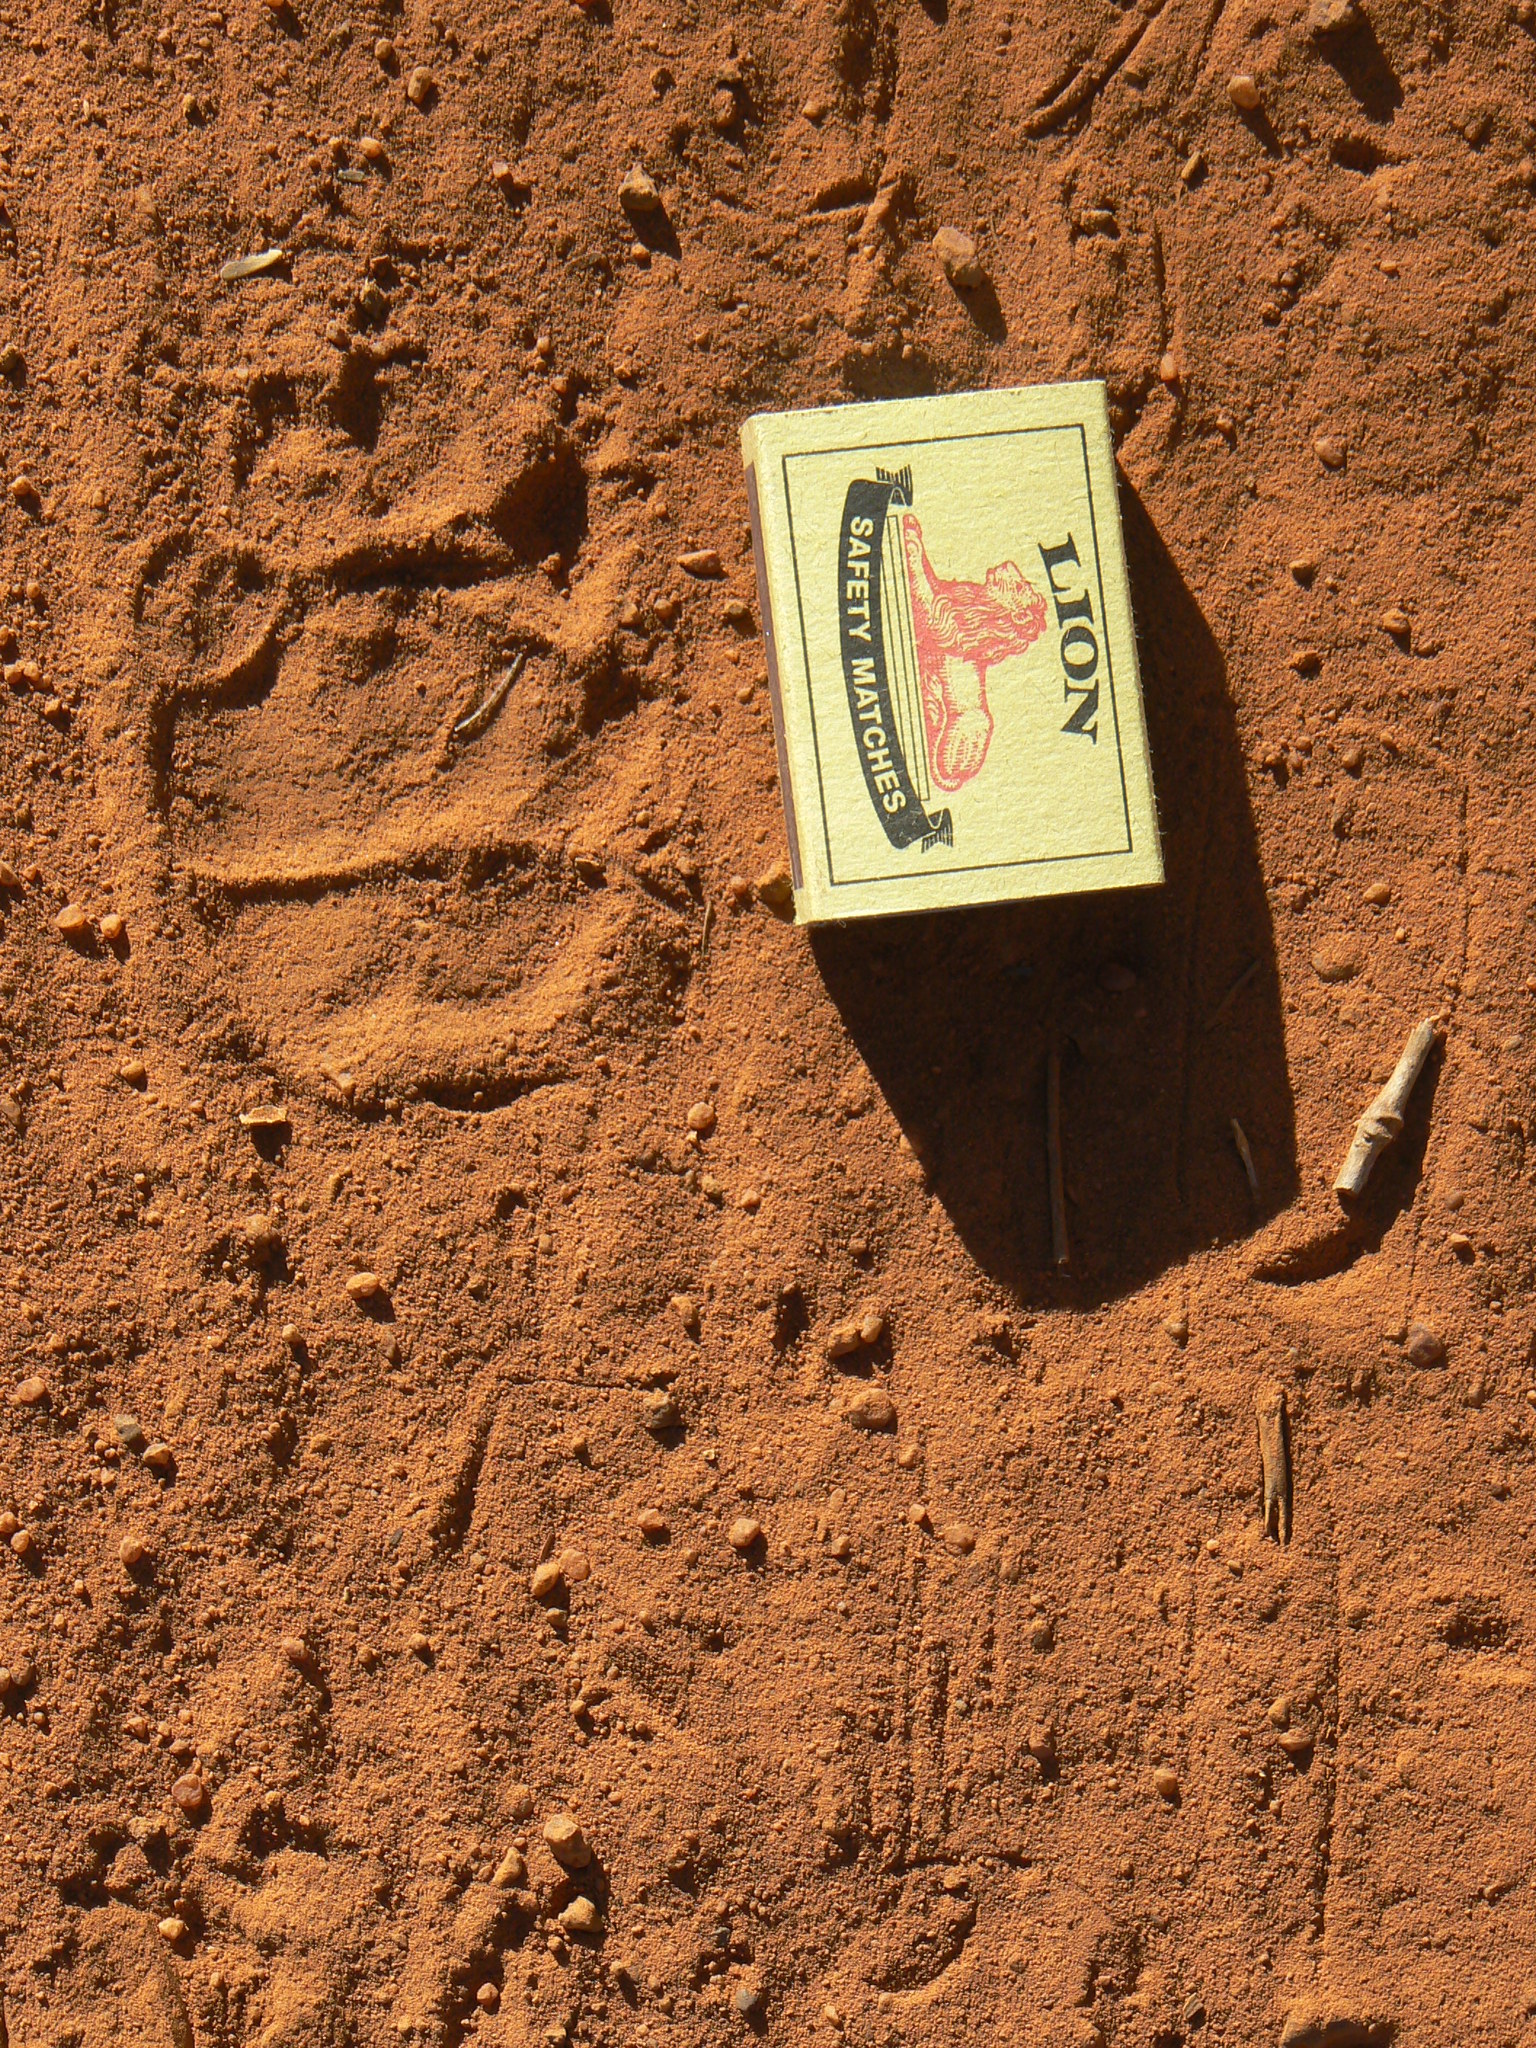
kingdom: Animalia
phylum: Chordata
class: Mammalia
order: Rodentia
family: Hystricidae
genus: Hystrix
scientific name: Hystrix africaeaustralis
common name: Cape porcupine
